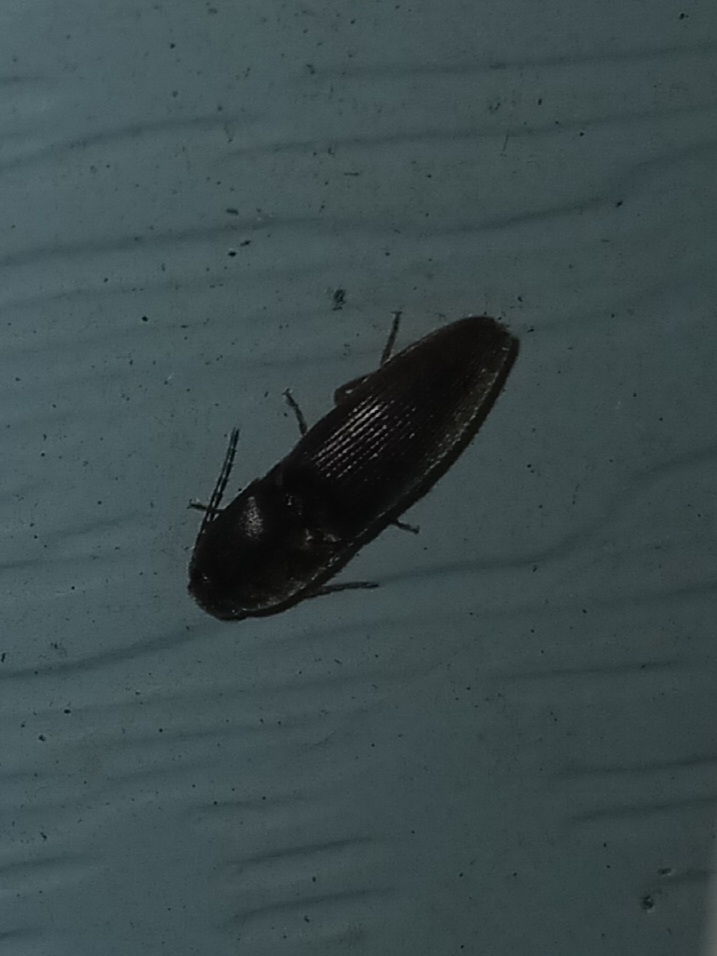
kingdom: Animalia
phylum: Arthropoda
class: Insecta
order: Coleoptera
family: Elateridae
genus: Conoderus
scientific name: Conoderus exsul
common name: Click beetle
